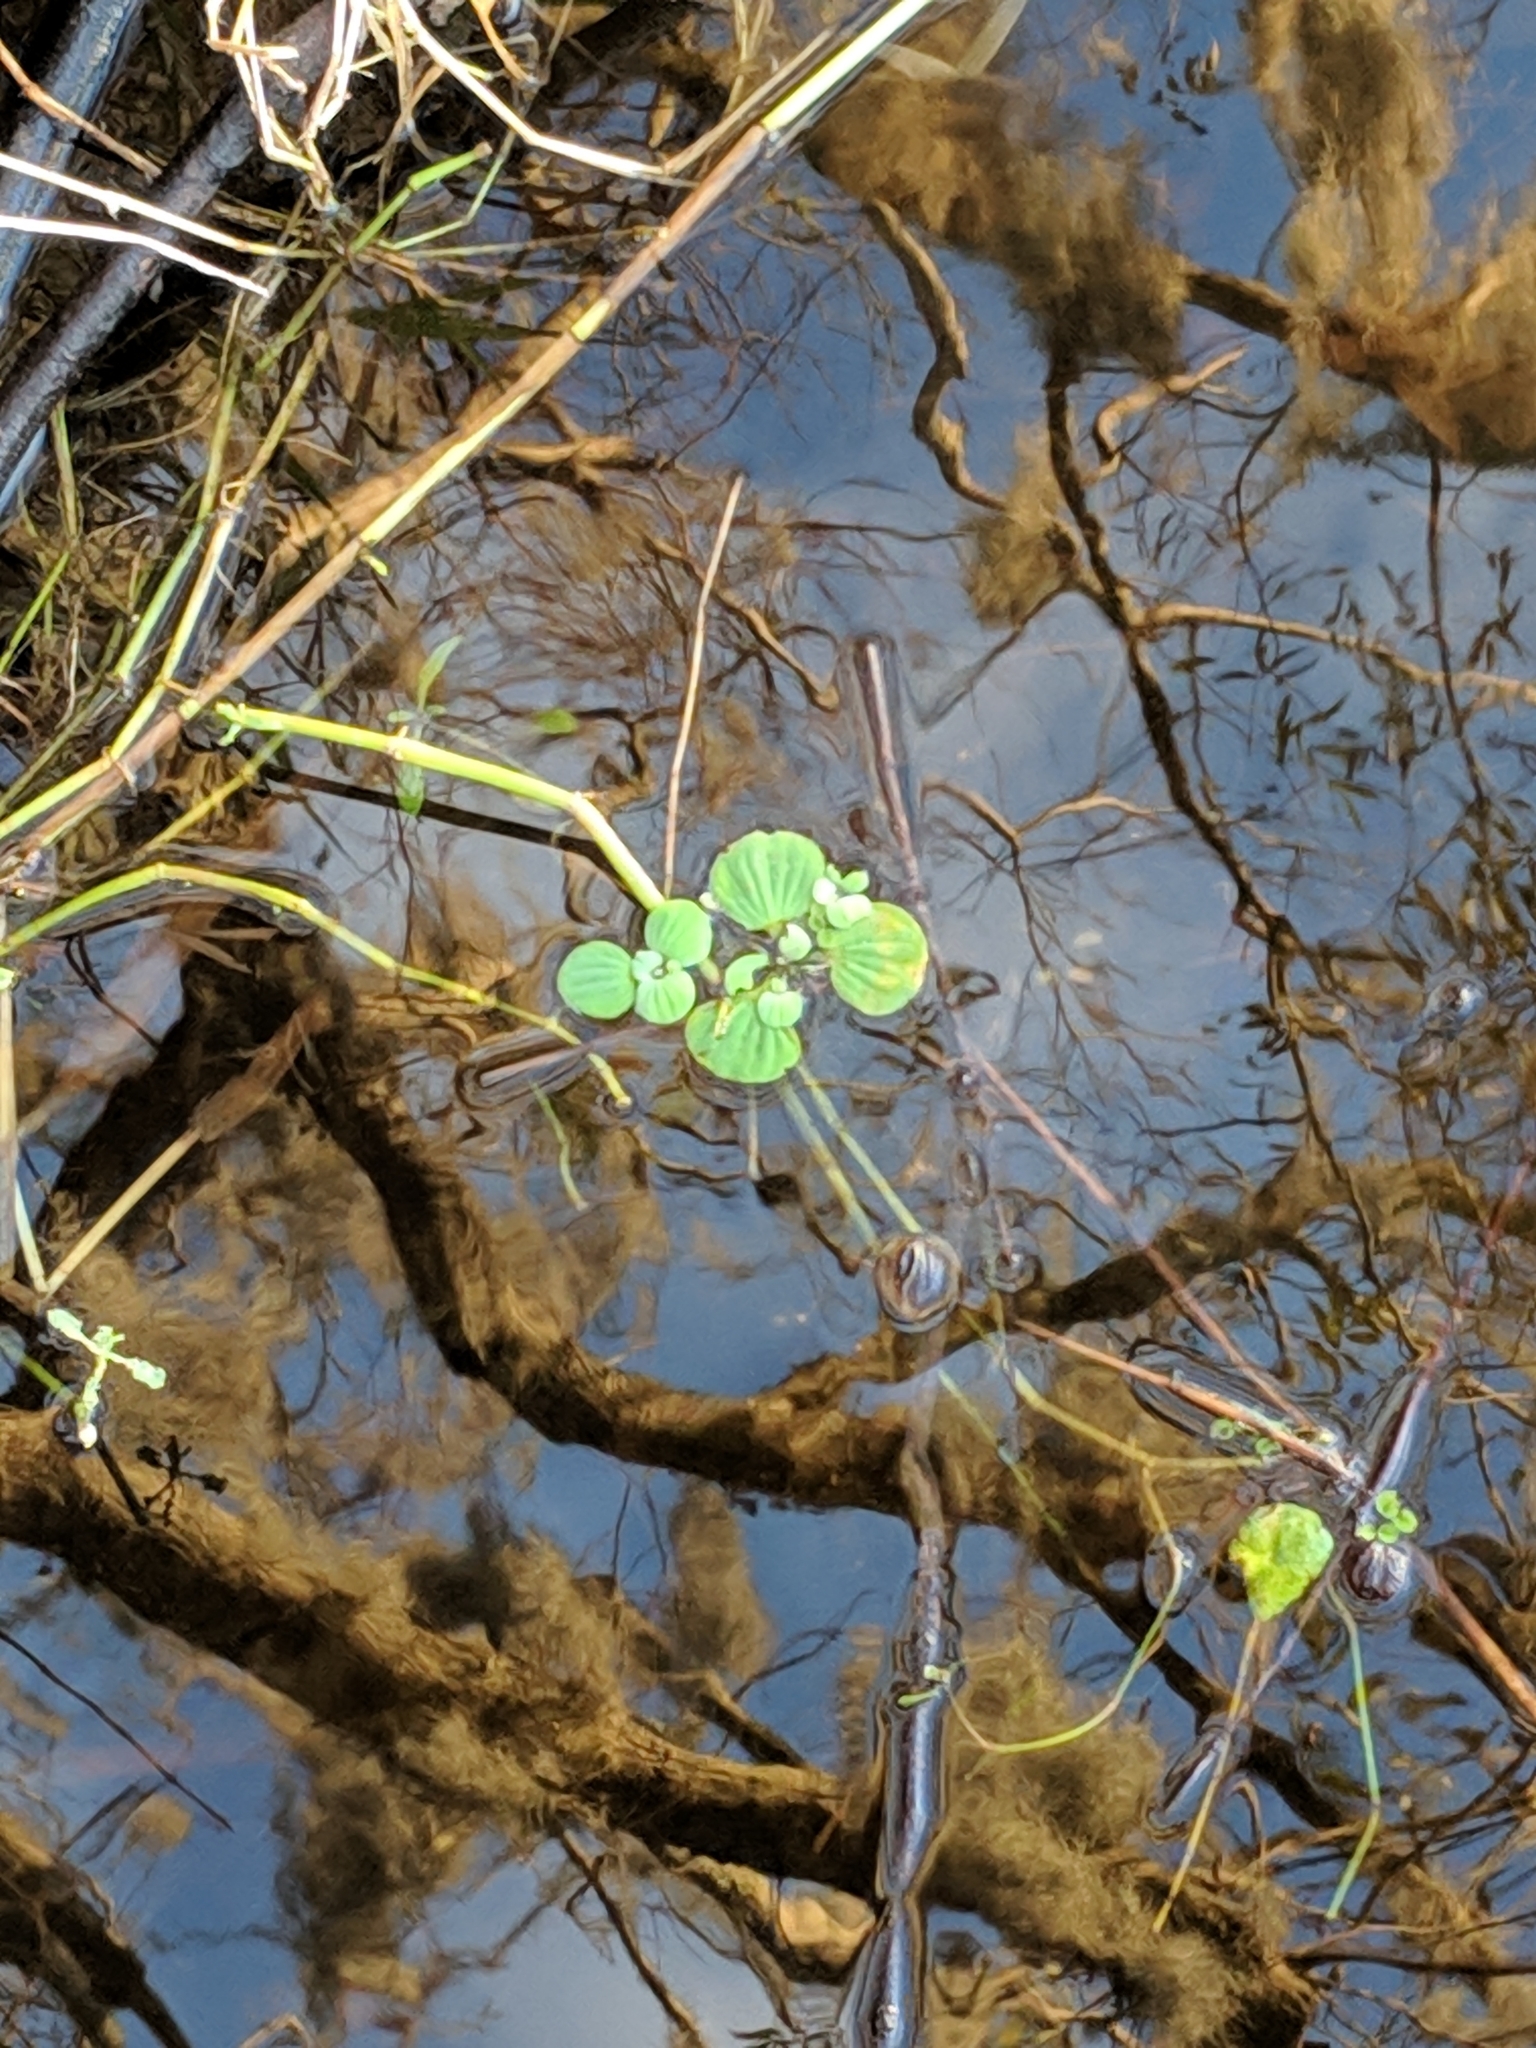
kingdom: Plantae
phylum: Tracheophyta
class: Liliopsida
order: Alismatales
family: Araceae
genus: Pistia
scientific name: Pistia stratiotes
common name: Water lettuce
